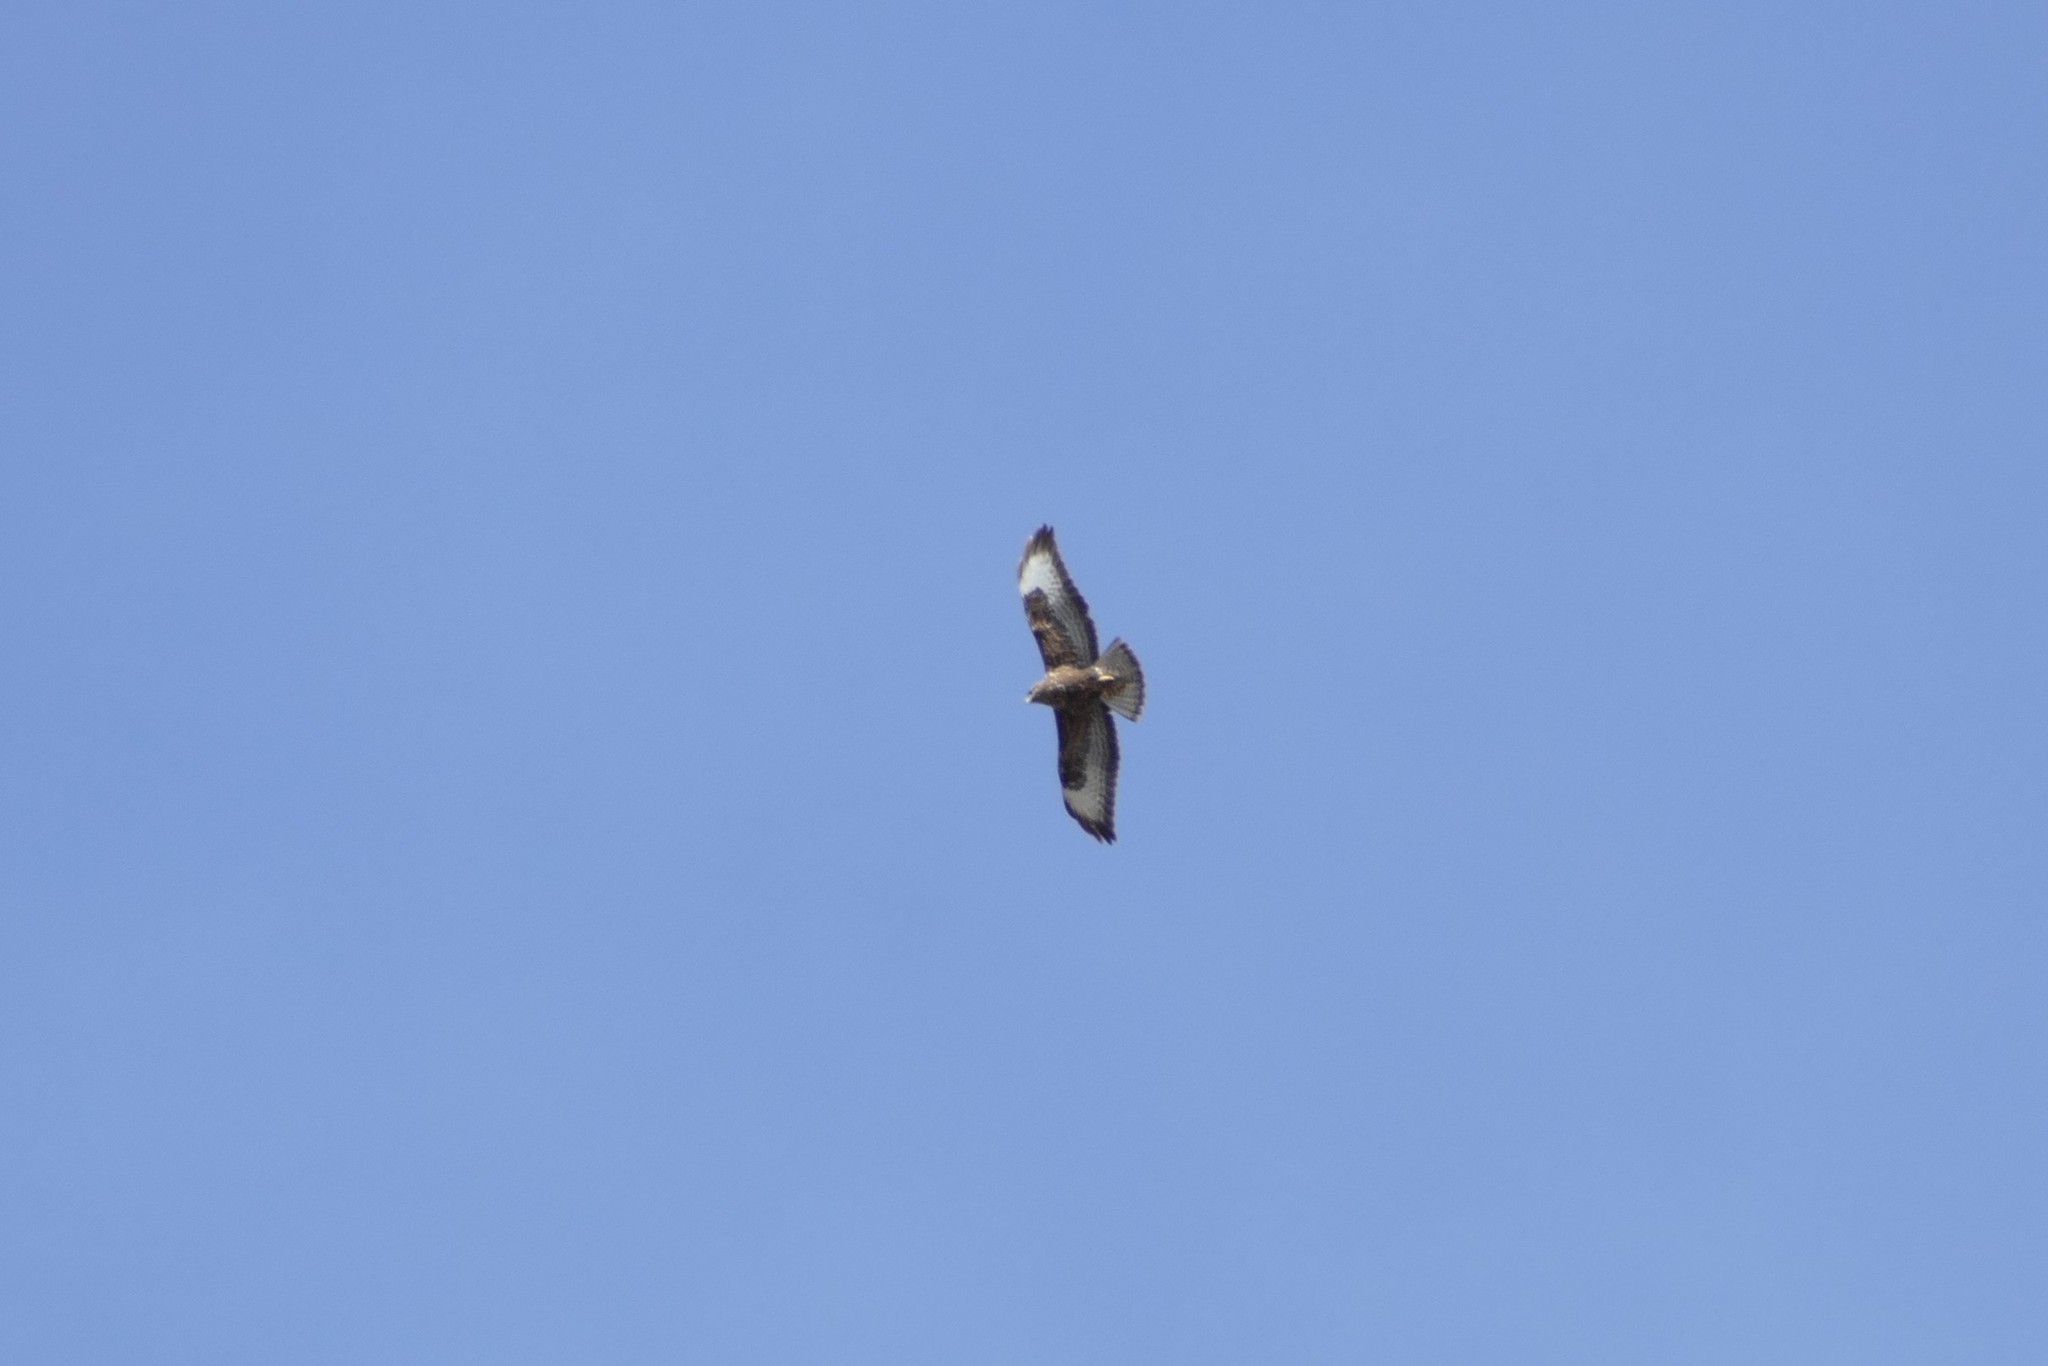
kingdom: Animalia
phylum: Chordata
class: Aves
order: Accipitriformes
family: Accipitridae
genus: Buteo
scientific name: Buteo buteo
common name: Common buzzard
